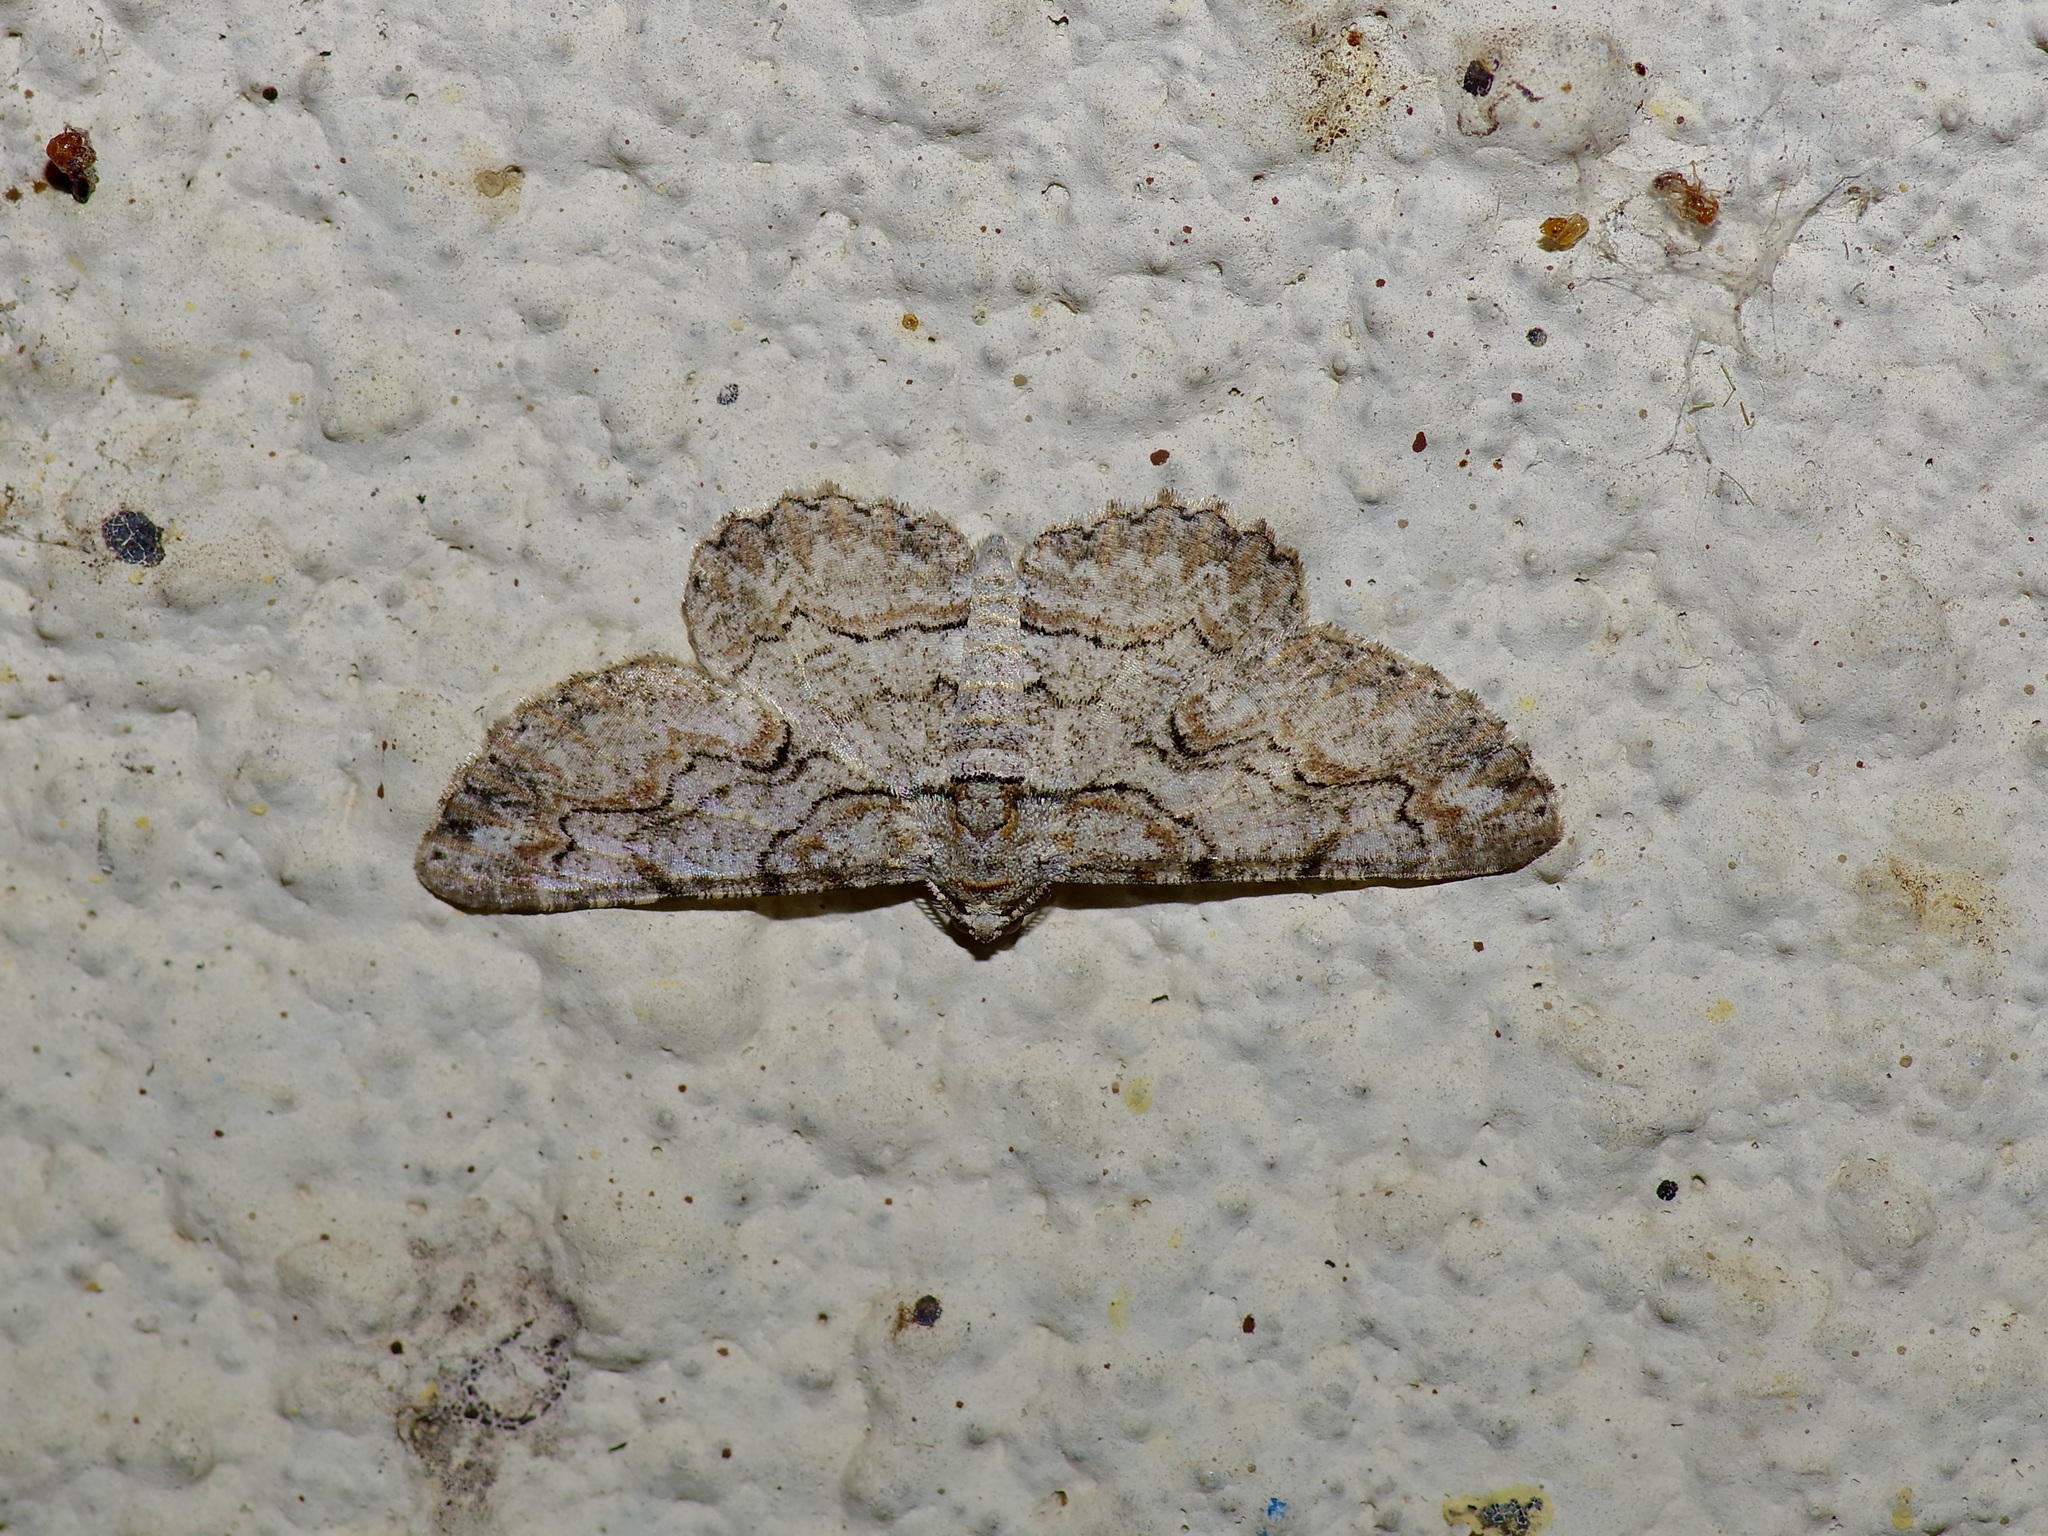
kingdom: Animalia
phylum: Arthropoda
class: Insecta
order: Lepidoptera
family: Geometridae
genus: Iridopsis
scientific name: Iridopsis defectaria
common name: Brown-shaded gray
